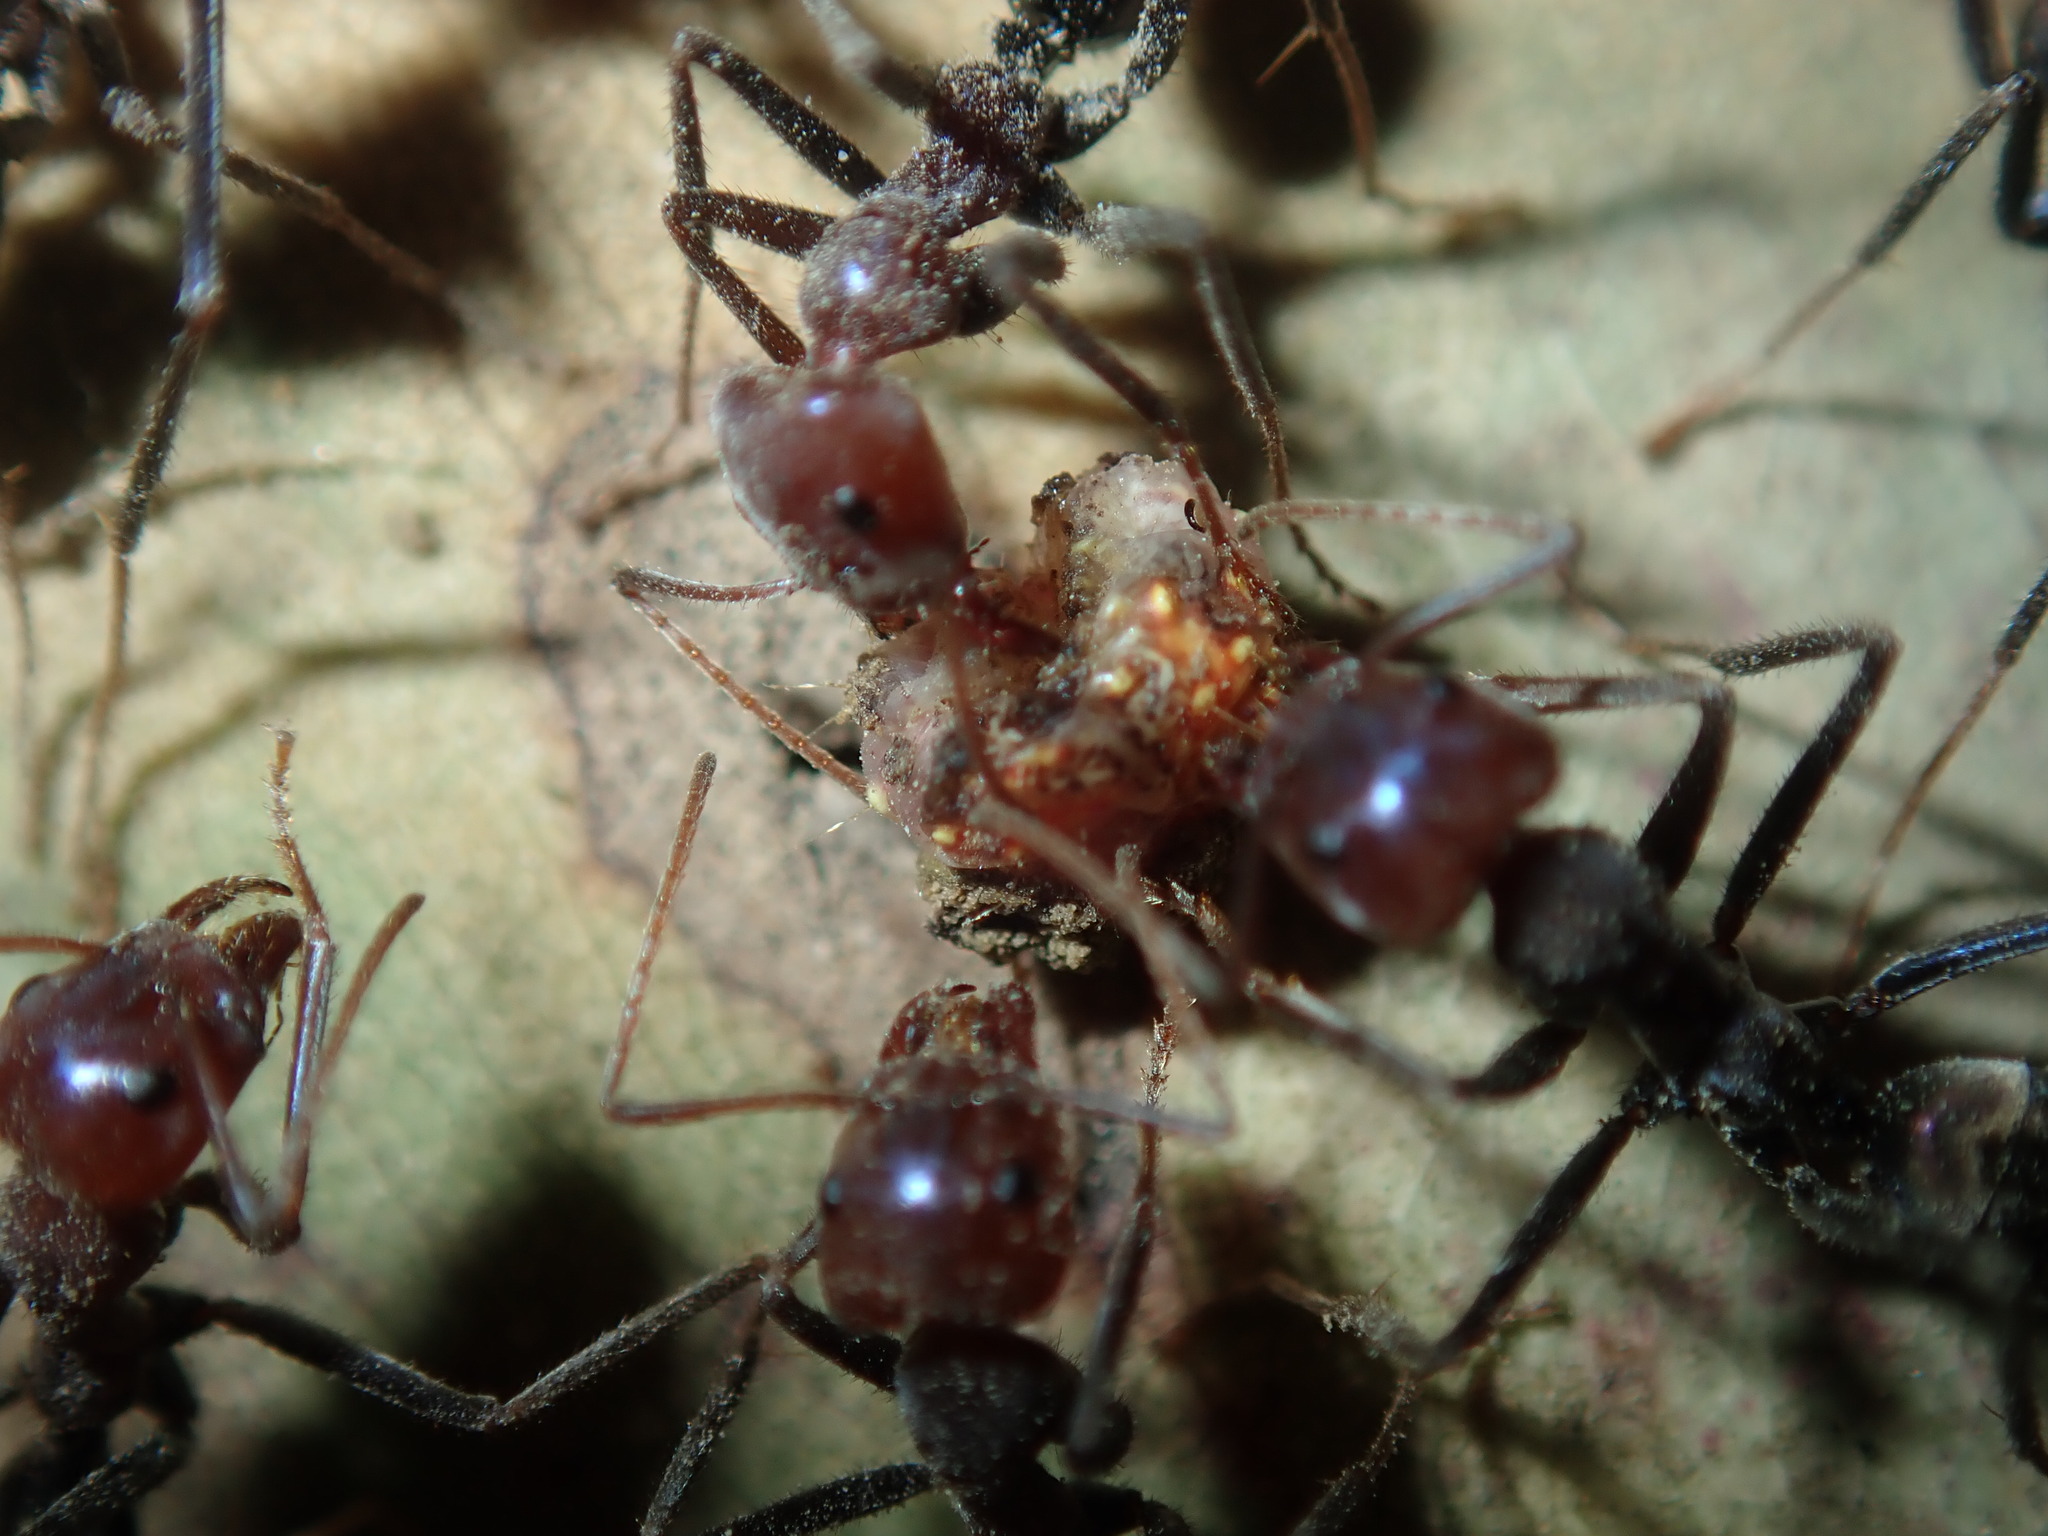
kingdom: Animalia
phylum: Arthropoda
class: Insecta
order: Hymenoptera
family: Formicidae
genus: Iridomyrmex
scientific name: Iridomyrmex purpureus
